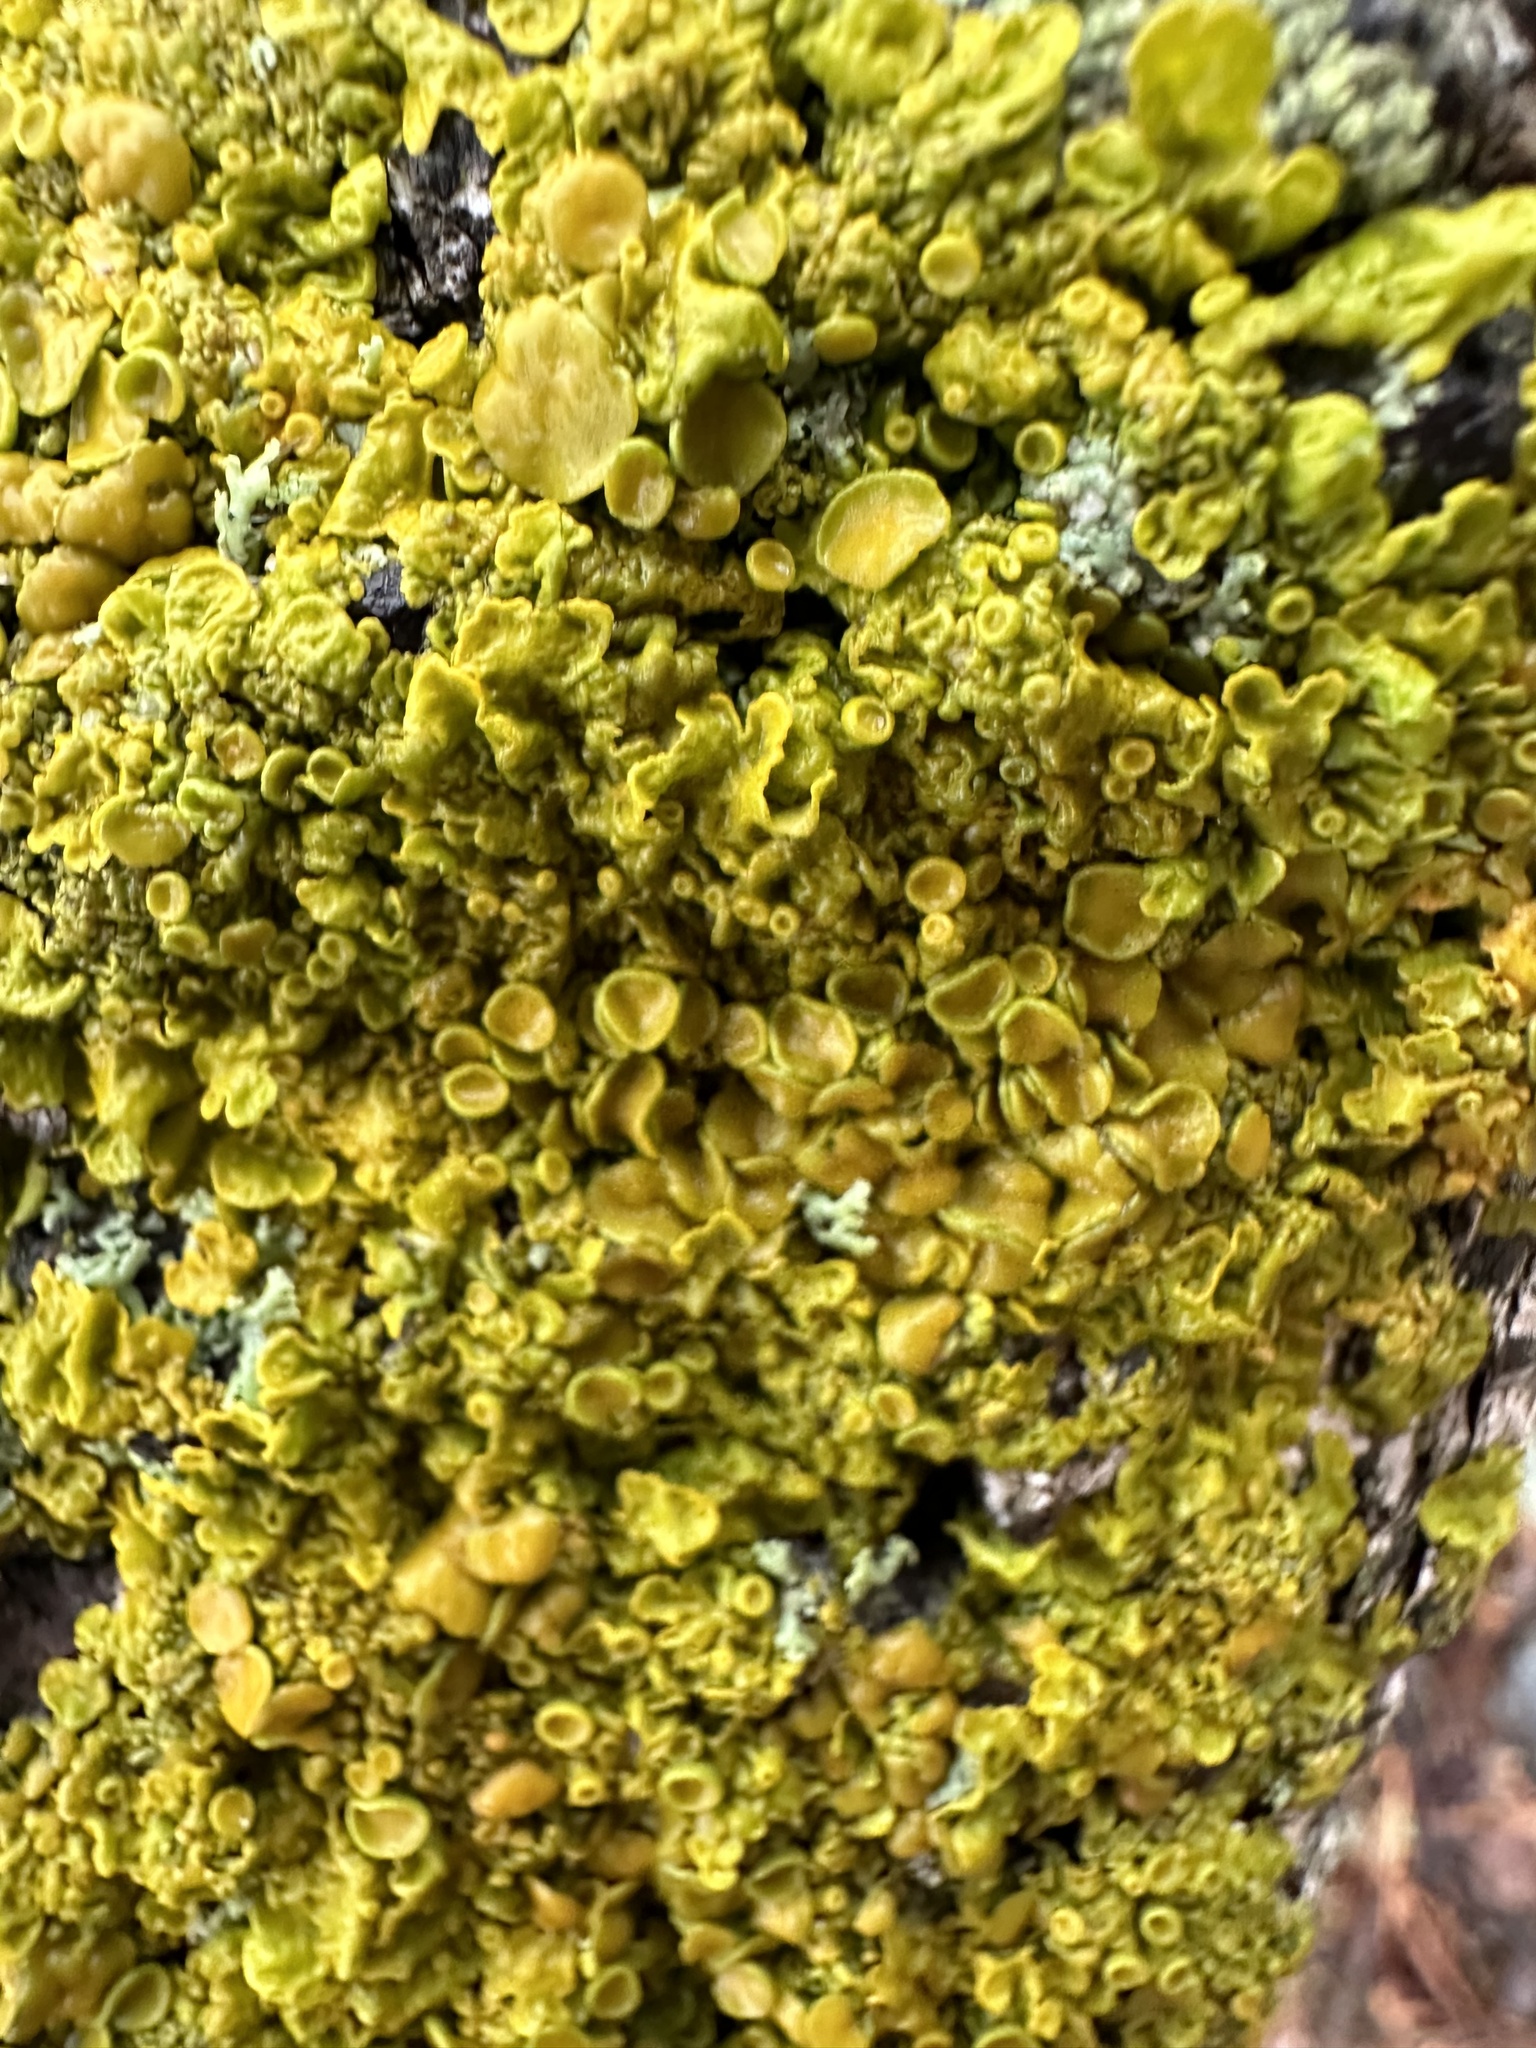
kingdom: Fungi
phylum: Ascomycota
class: Lecanoromycetes
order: Teloschistales
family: Teloschistaceae
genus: Xanthoria
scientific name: Xanthoria parietina
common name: Common orange lichen
